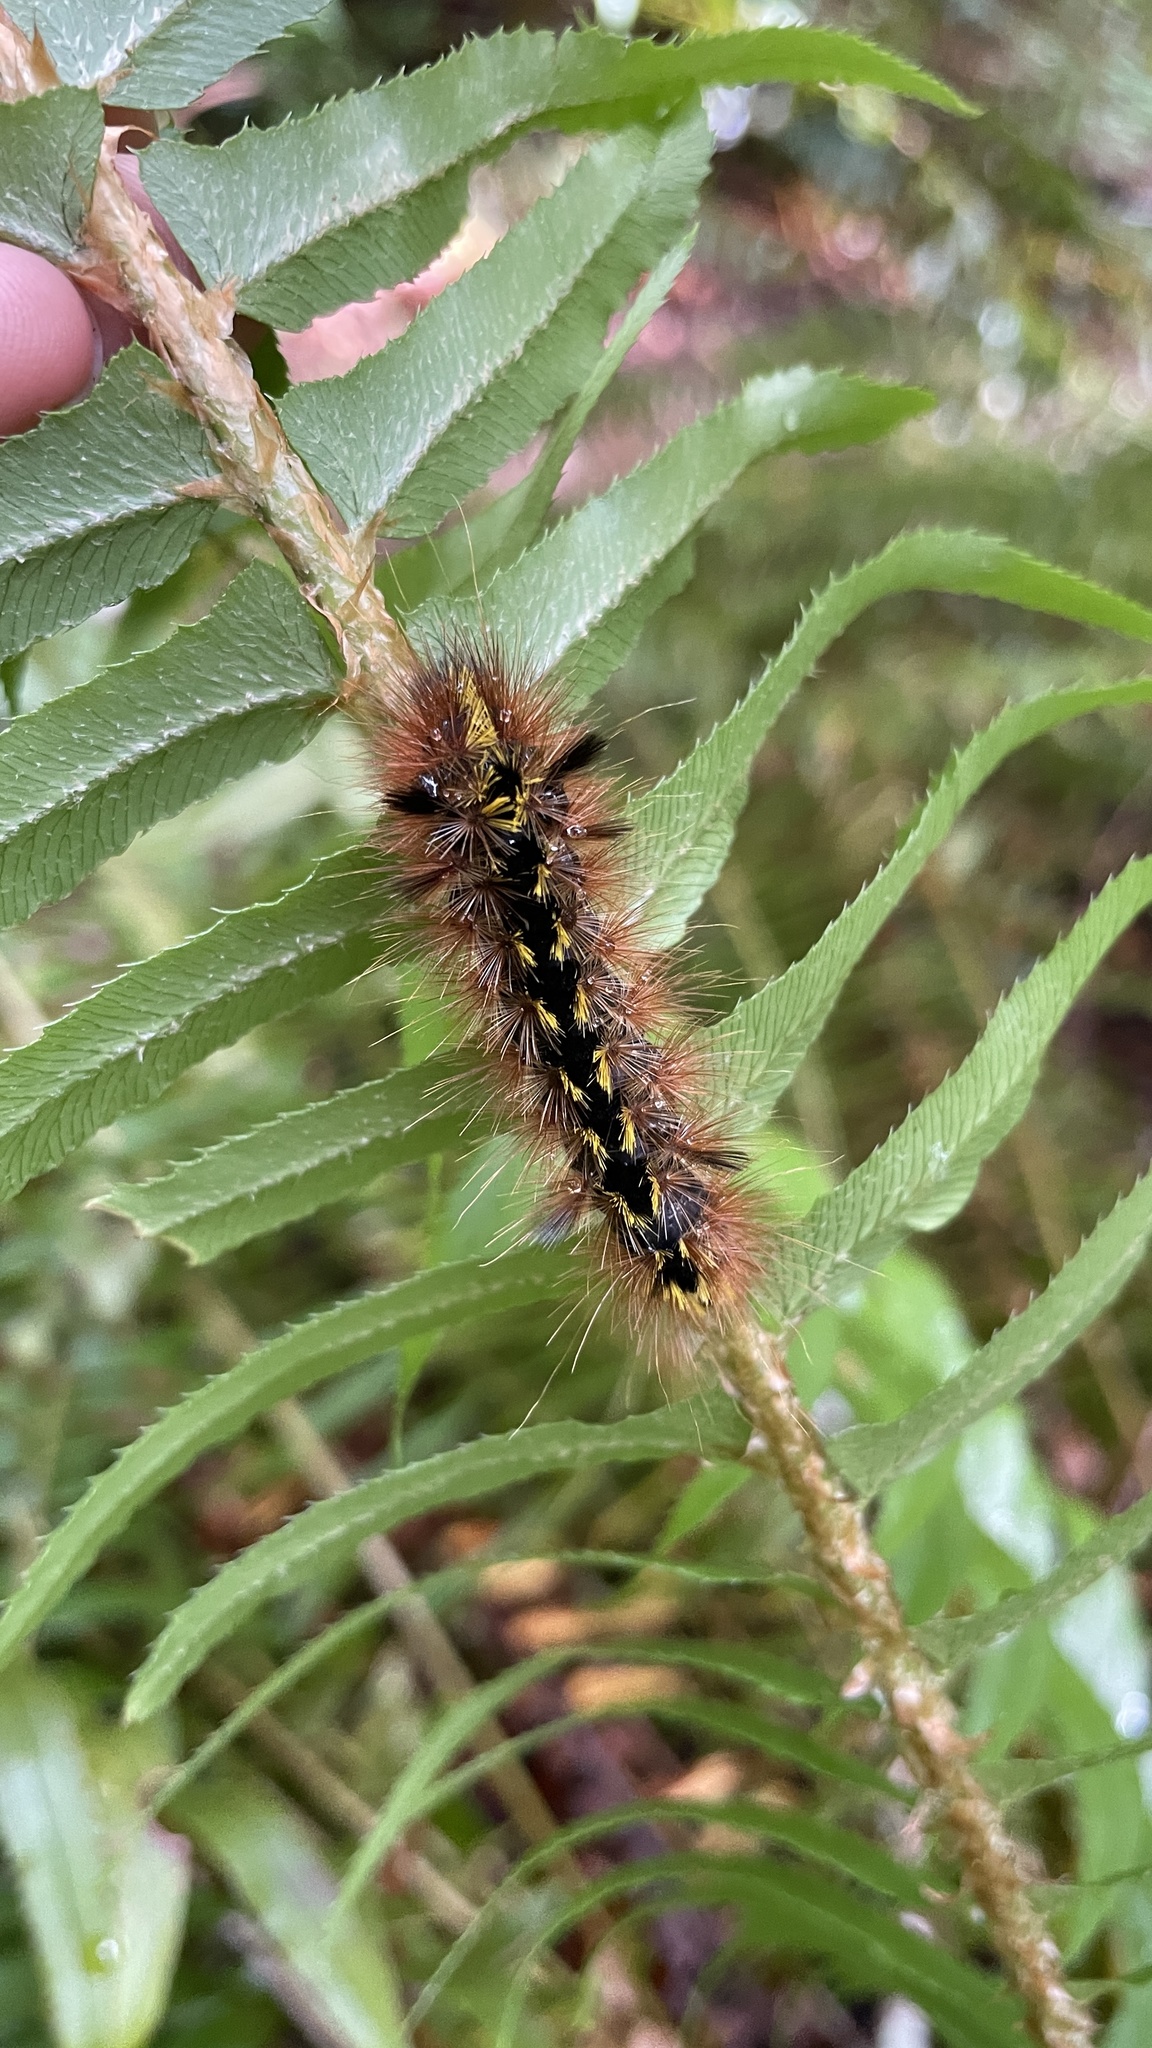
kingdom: Animalia
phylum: Arthropoda
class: Insecta
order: Lepidoptera
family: Erebidae
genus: Lophocampa
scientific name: Lophocampa argentata
